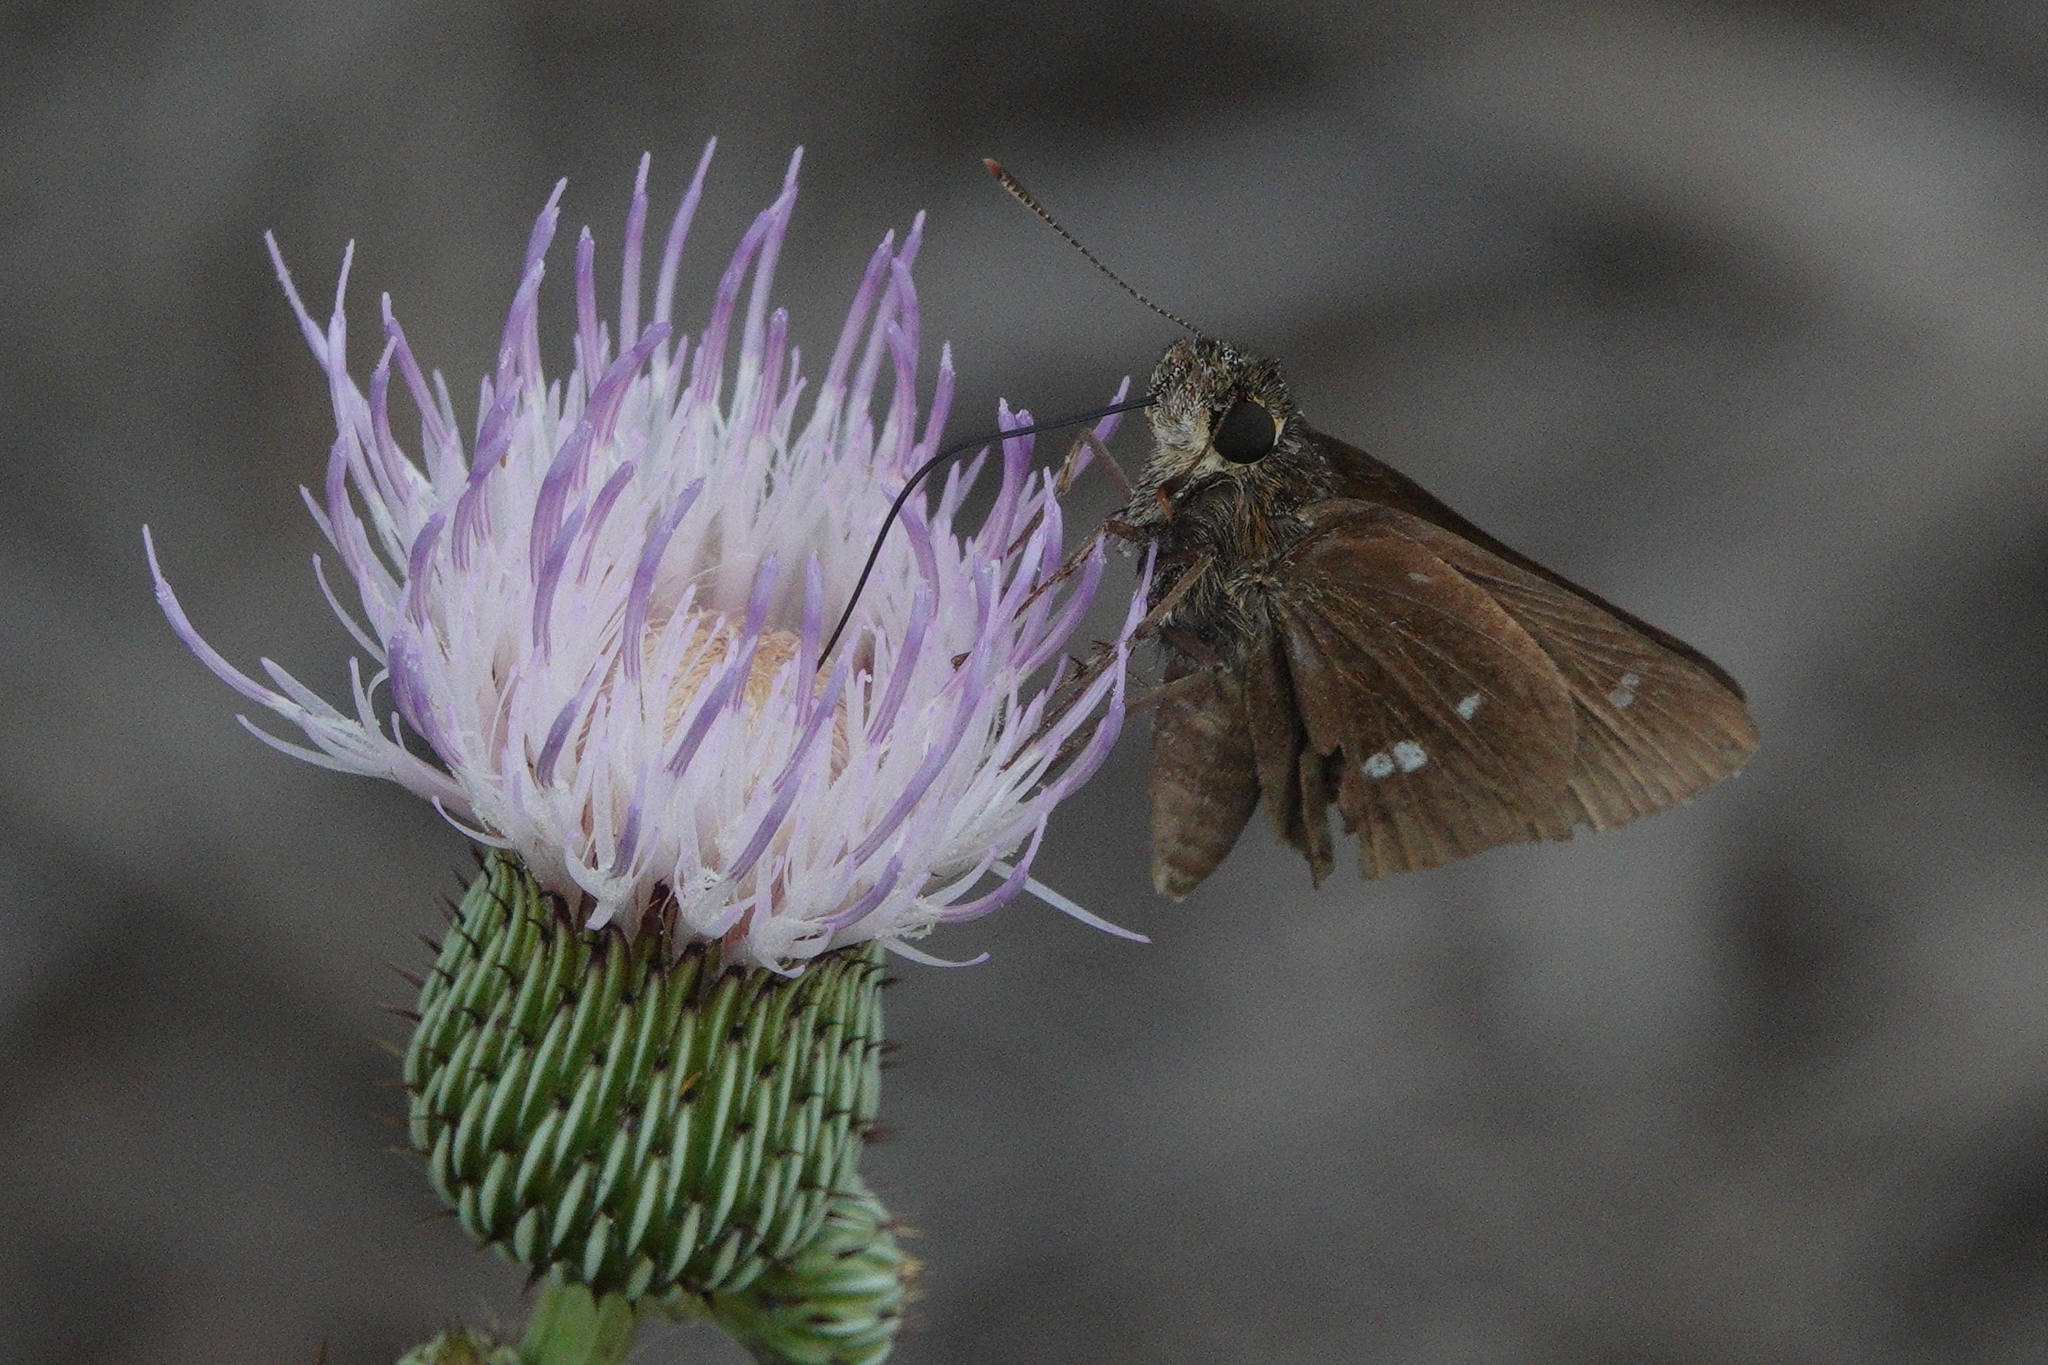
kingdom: Animalia
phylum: Arthropoda
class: Insecta
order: Lepidoptera
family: Hesperiidae
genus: Oligoria
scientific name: Oligoria maculata
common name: Twin-spot skipper
